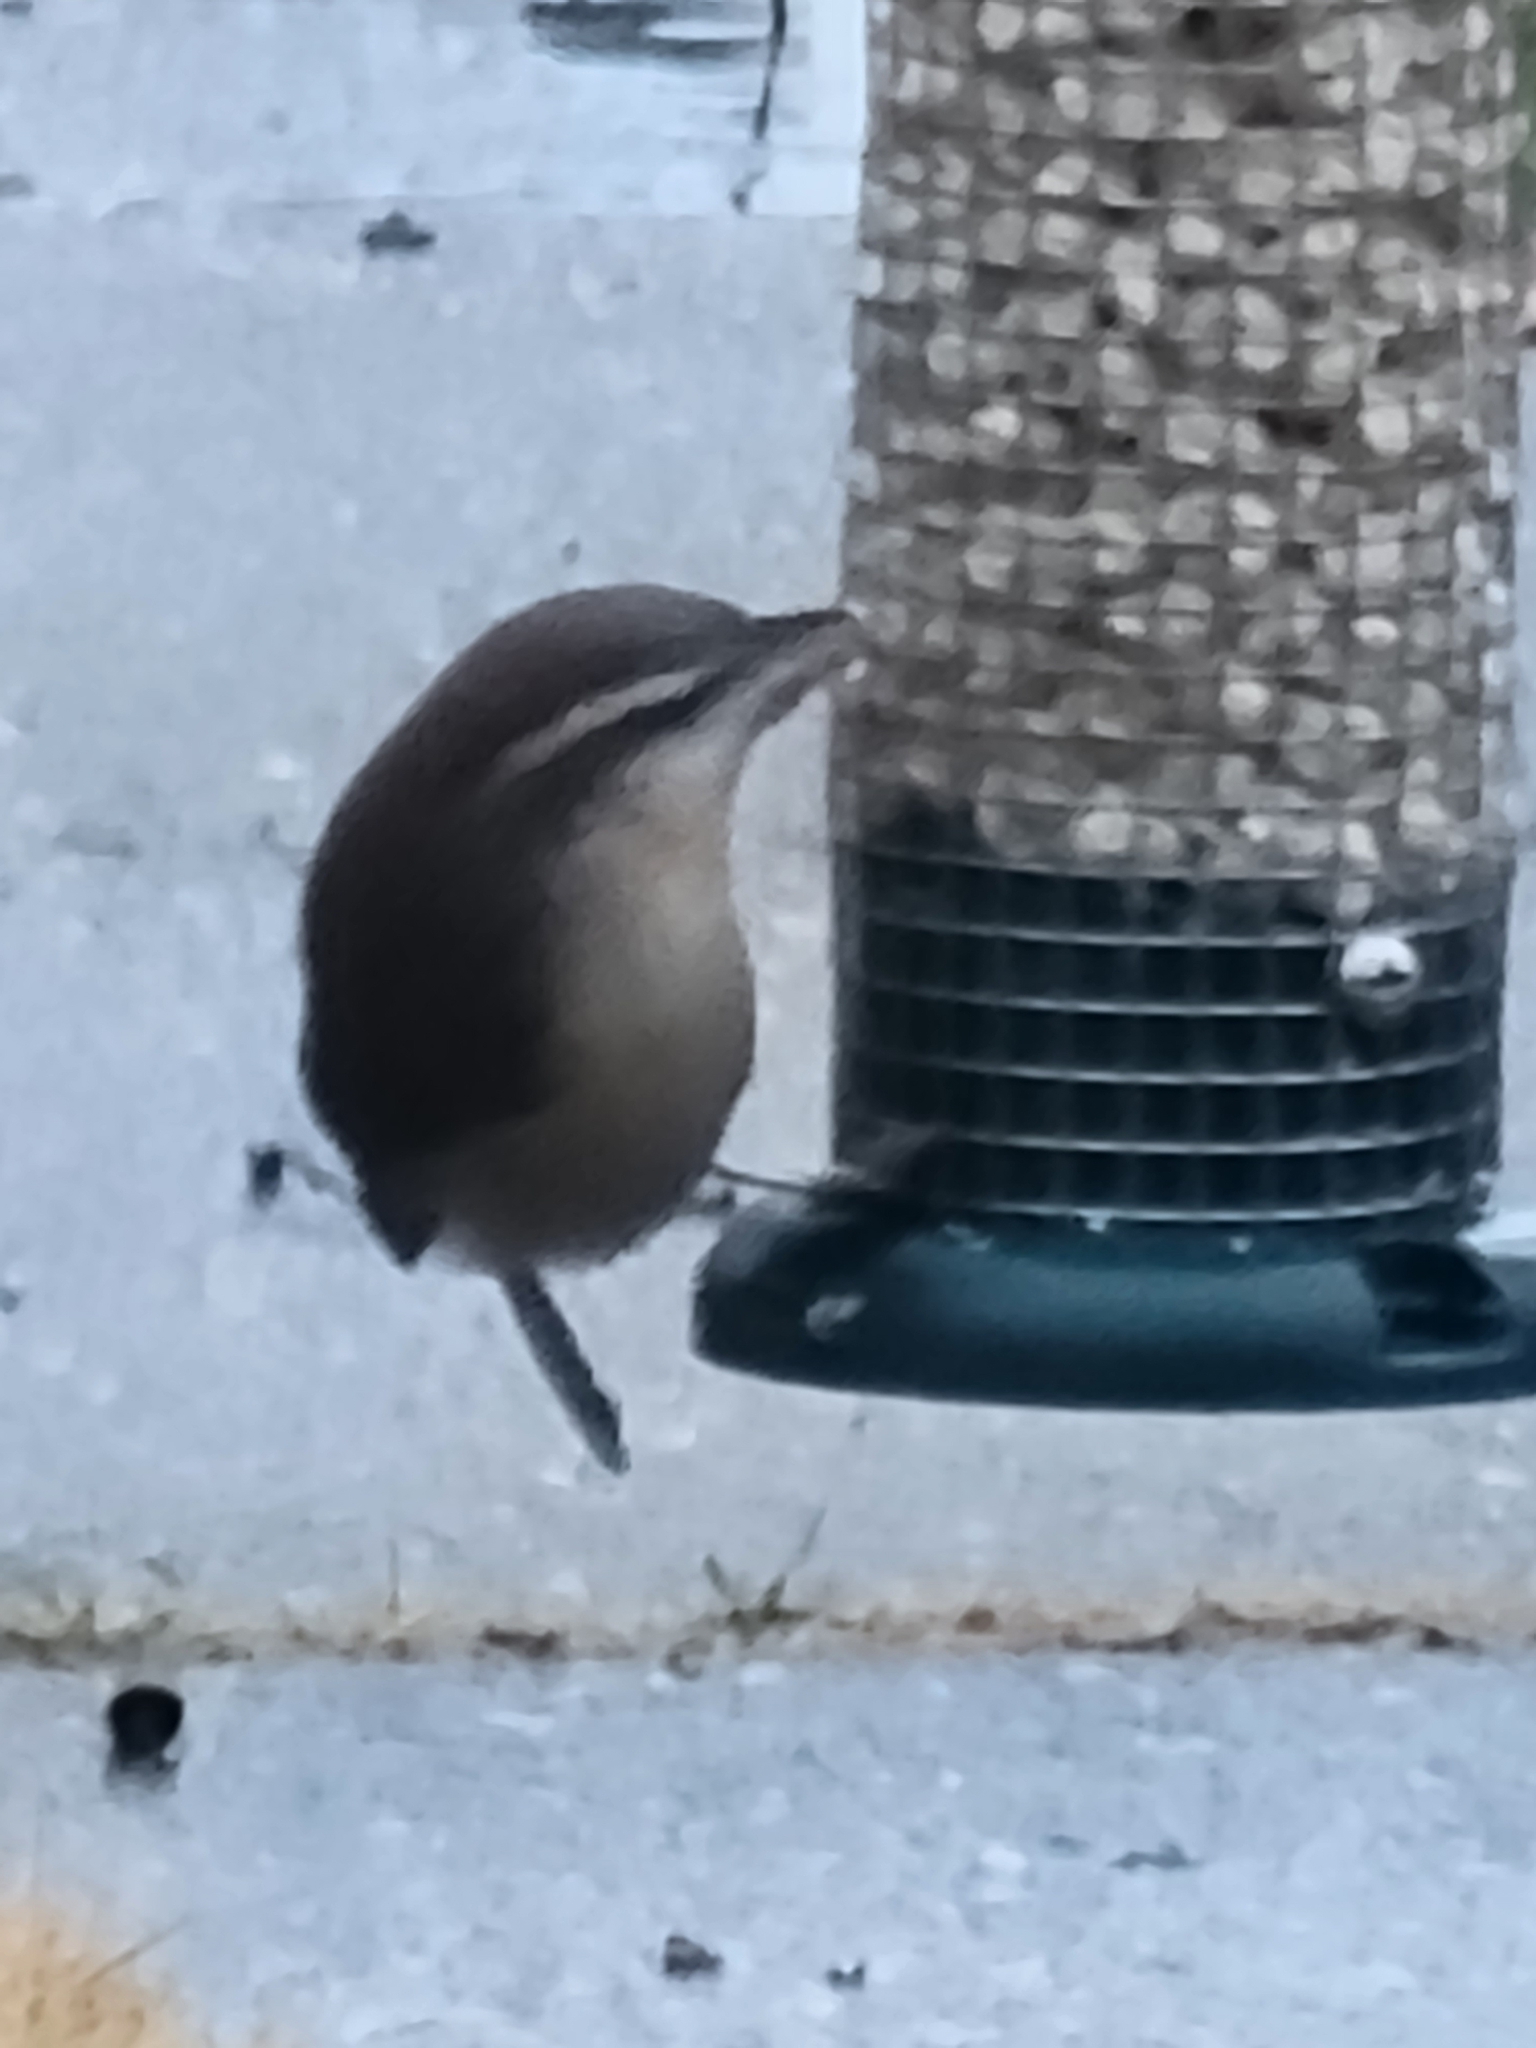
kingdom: Animalia
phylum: Chordata
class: Aves
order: Passeriformes
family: Troglodytidae
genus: Thryothorus
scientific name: Thryothorus ludovicianus
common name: Carolina wren
